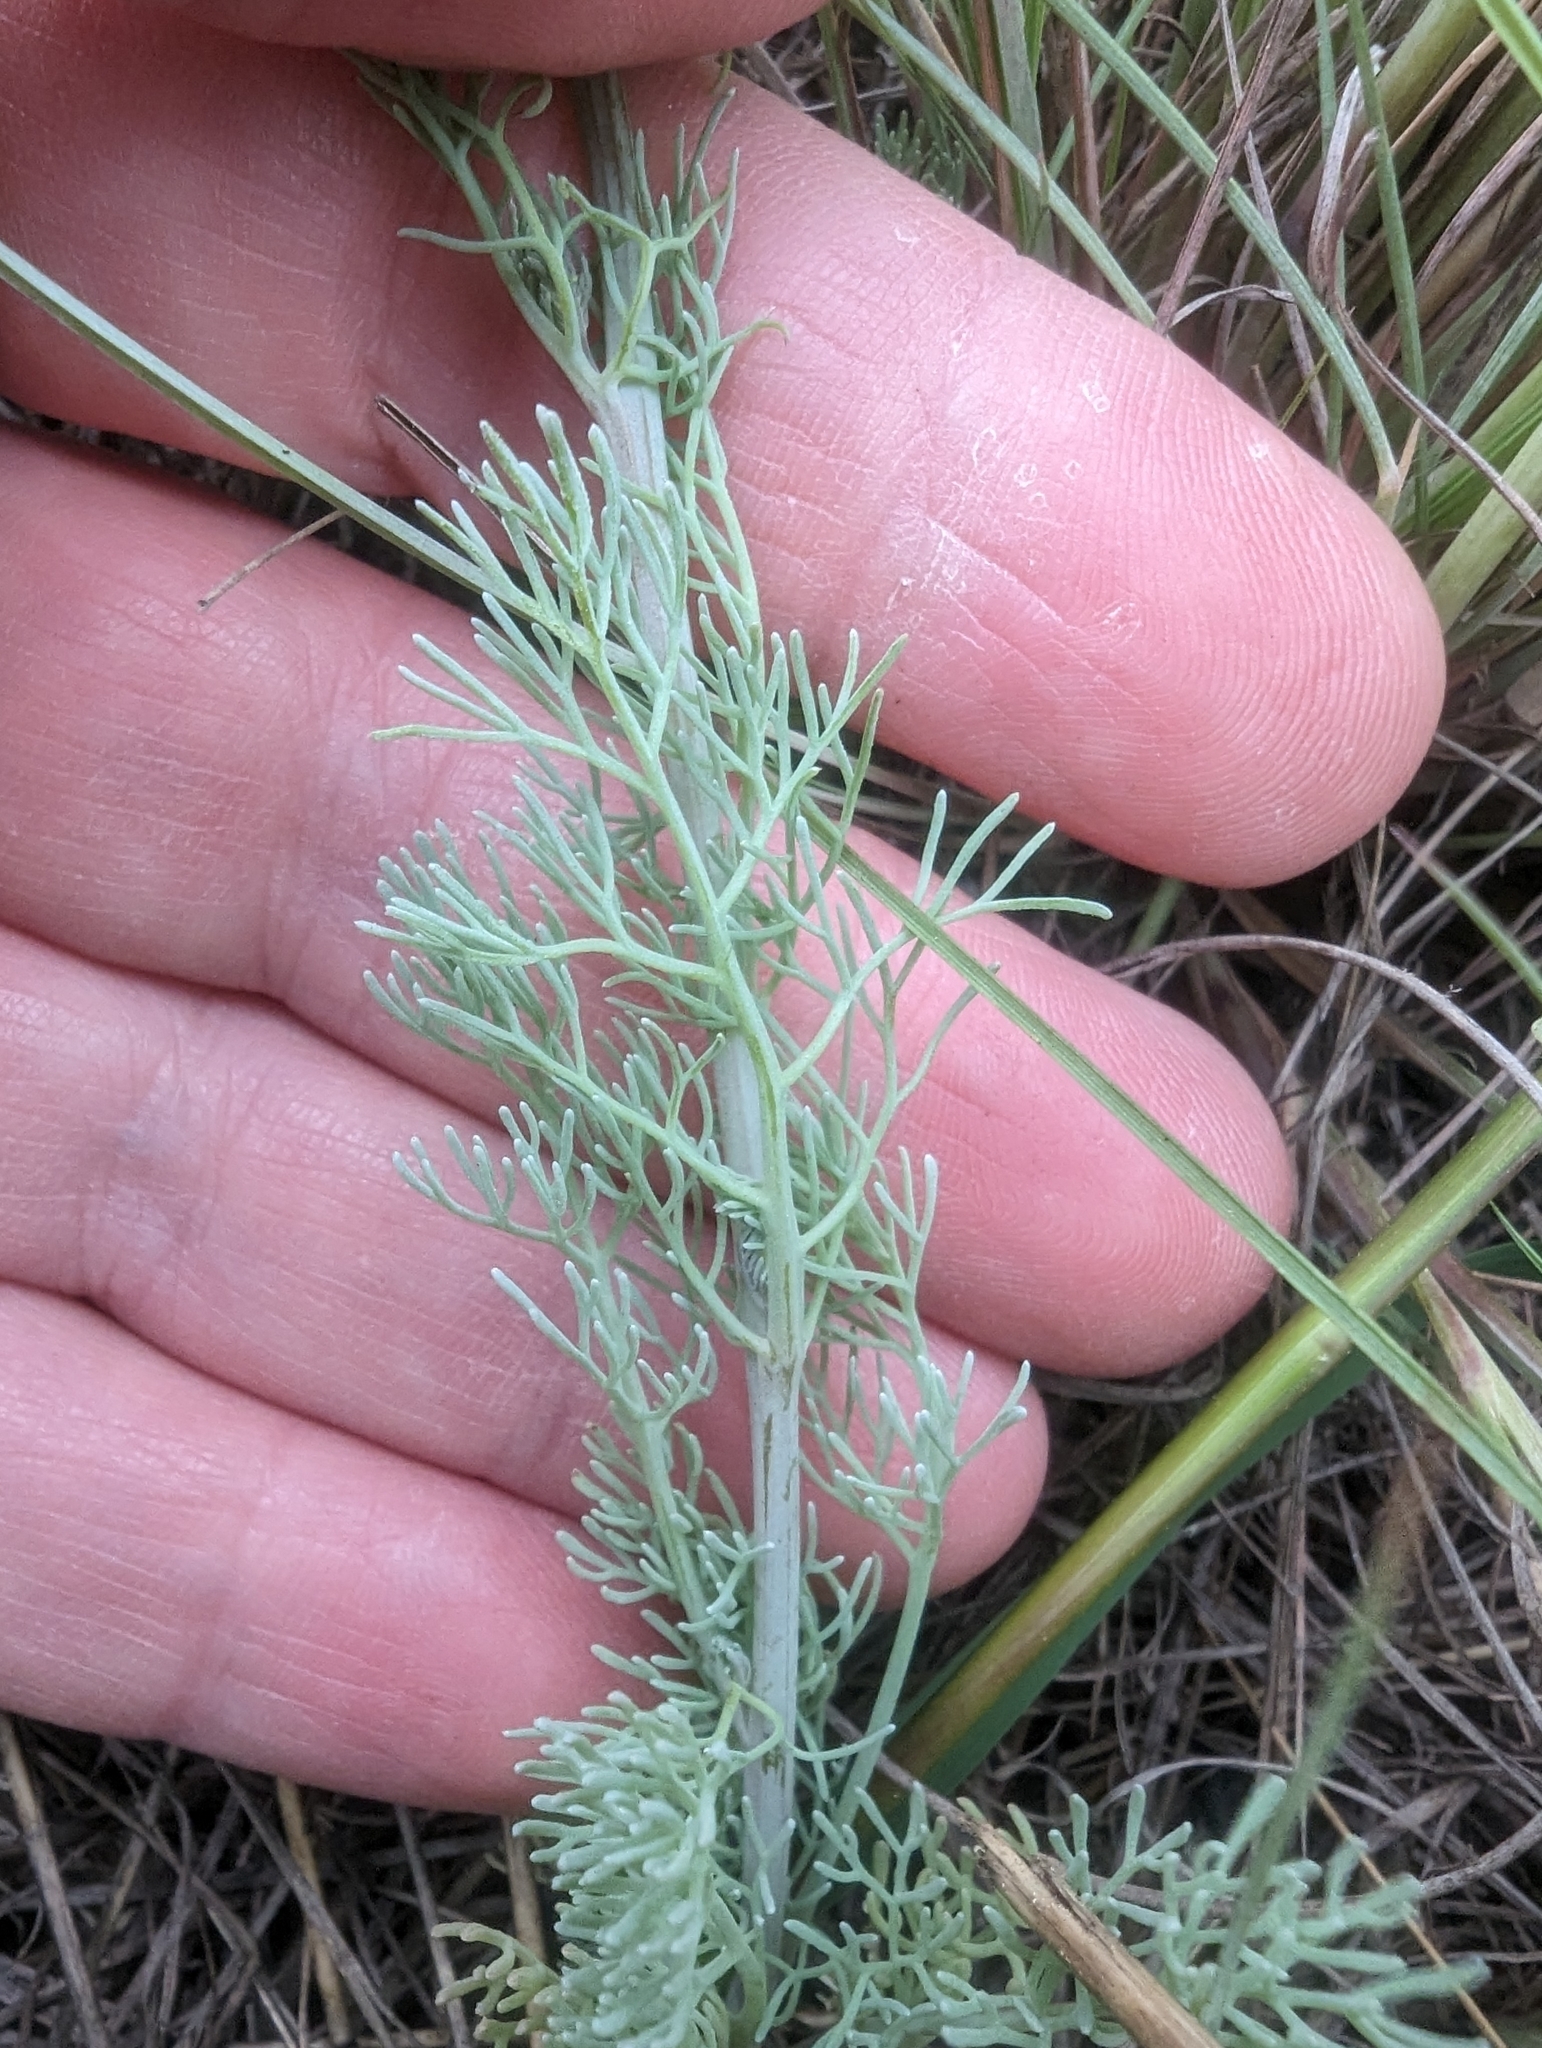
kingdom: Plantae
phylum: Tracheophyta
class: Magnoliopsida
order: Ranunculales
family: Papaveraceae
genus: Platycapnos
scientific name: Platycapnos spicata
